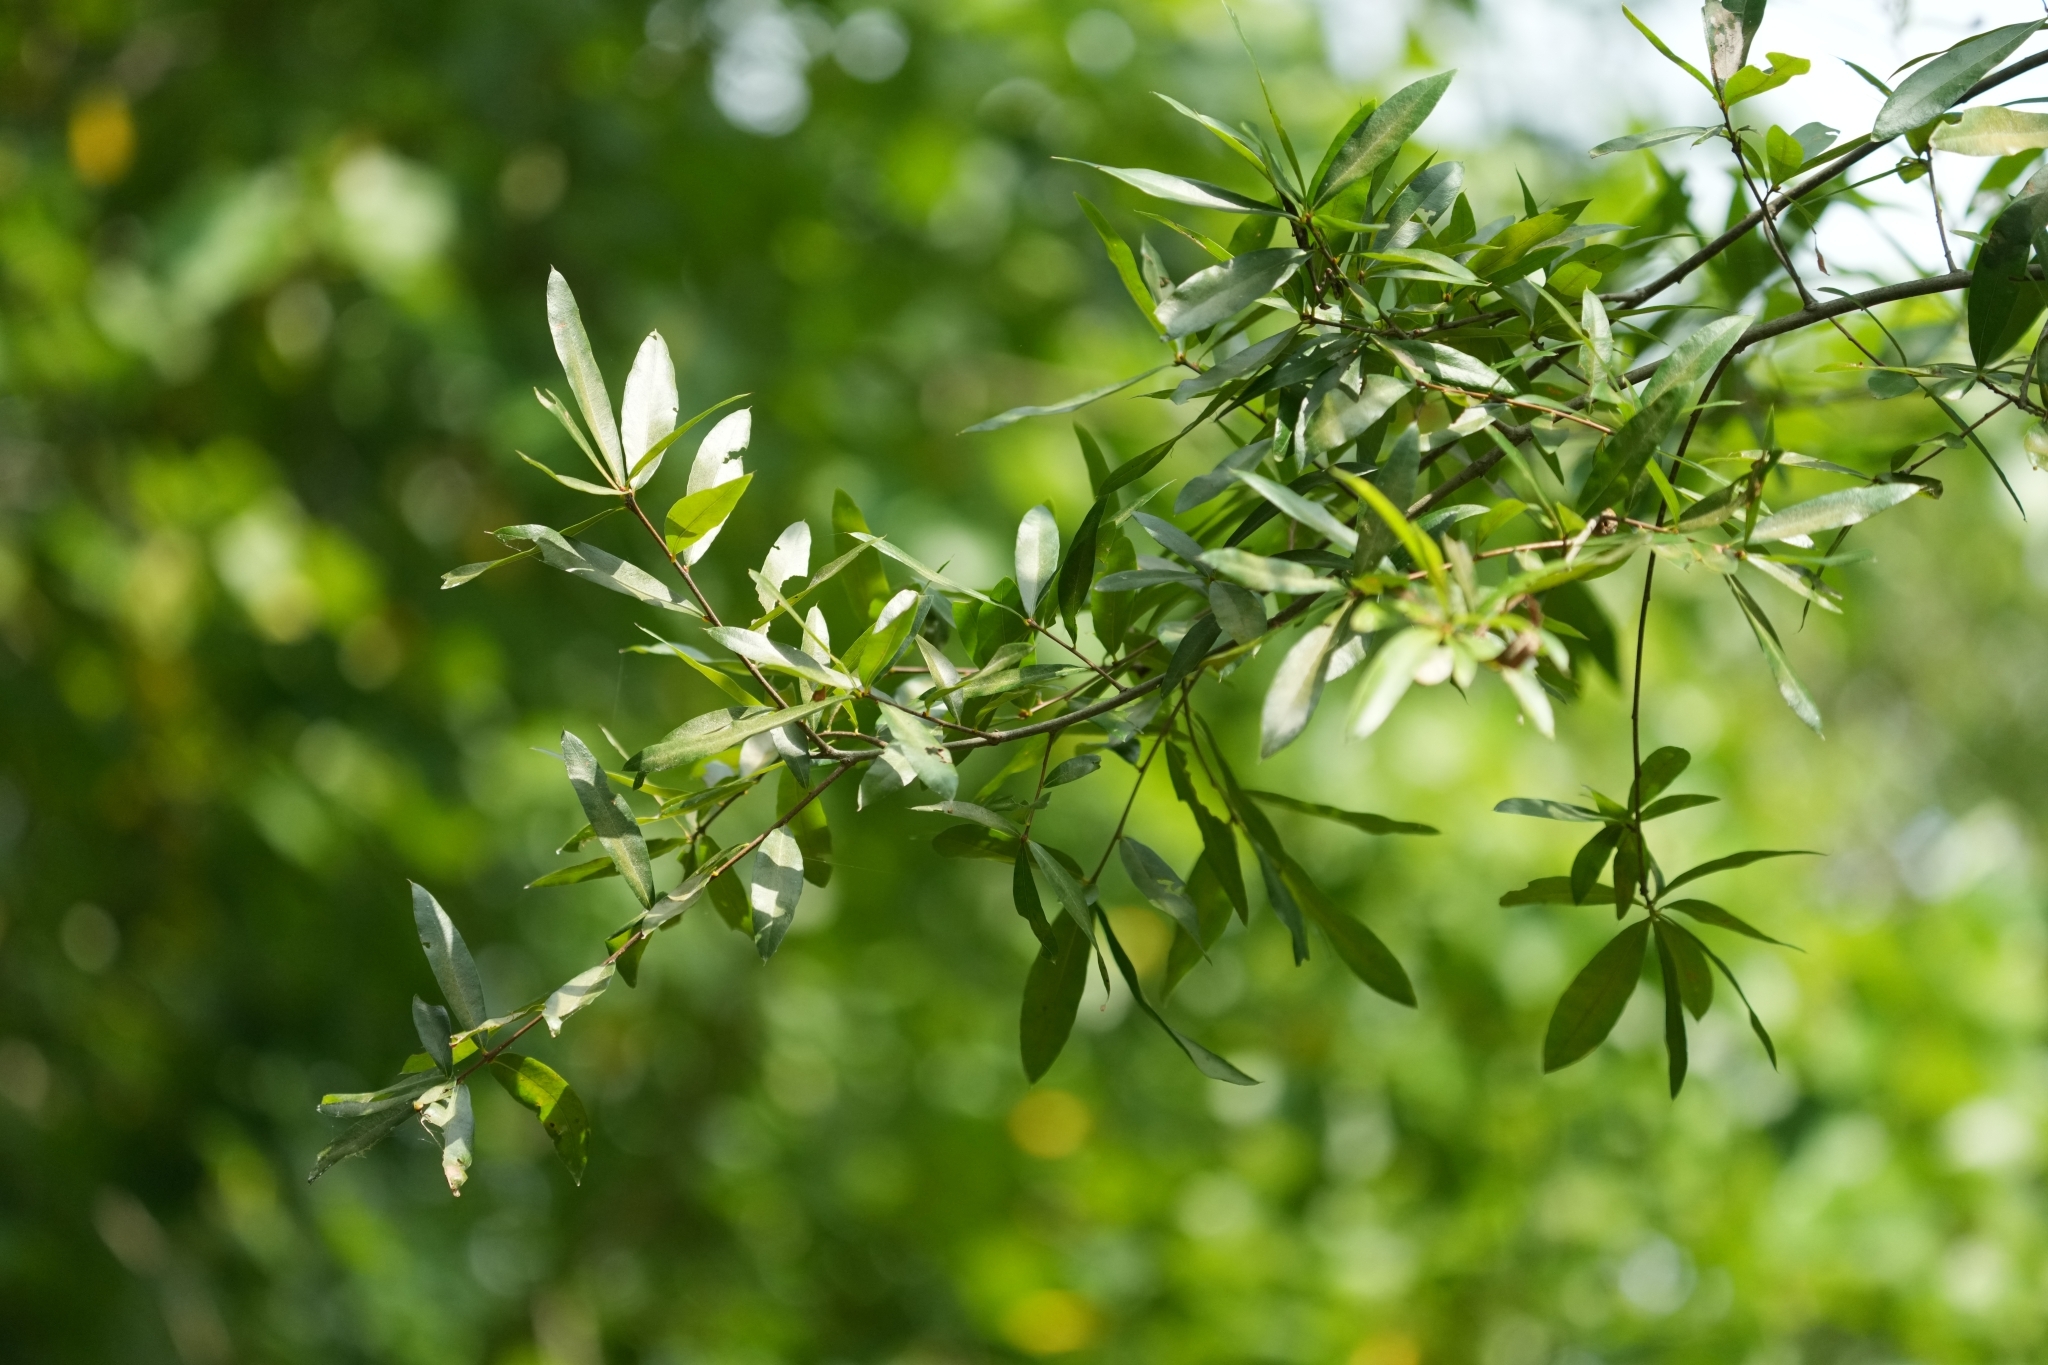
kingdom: Plantae
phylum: Tracheophyta
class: Magnoliopsida
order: Fagales
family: Fagaceae
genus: Quercus
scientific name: Quercus phellos
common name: Willow oak
